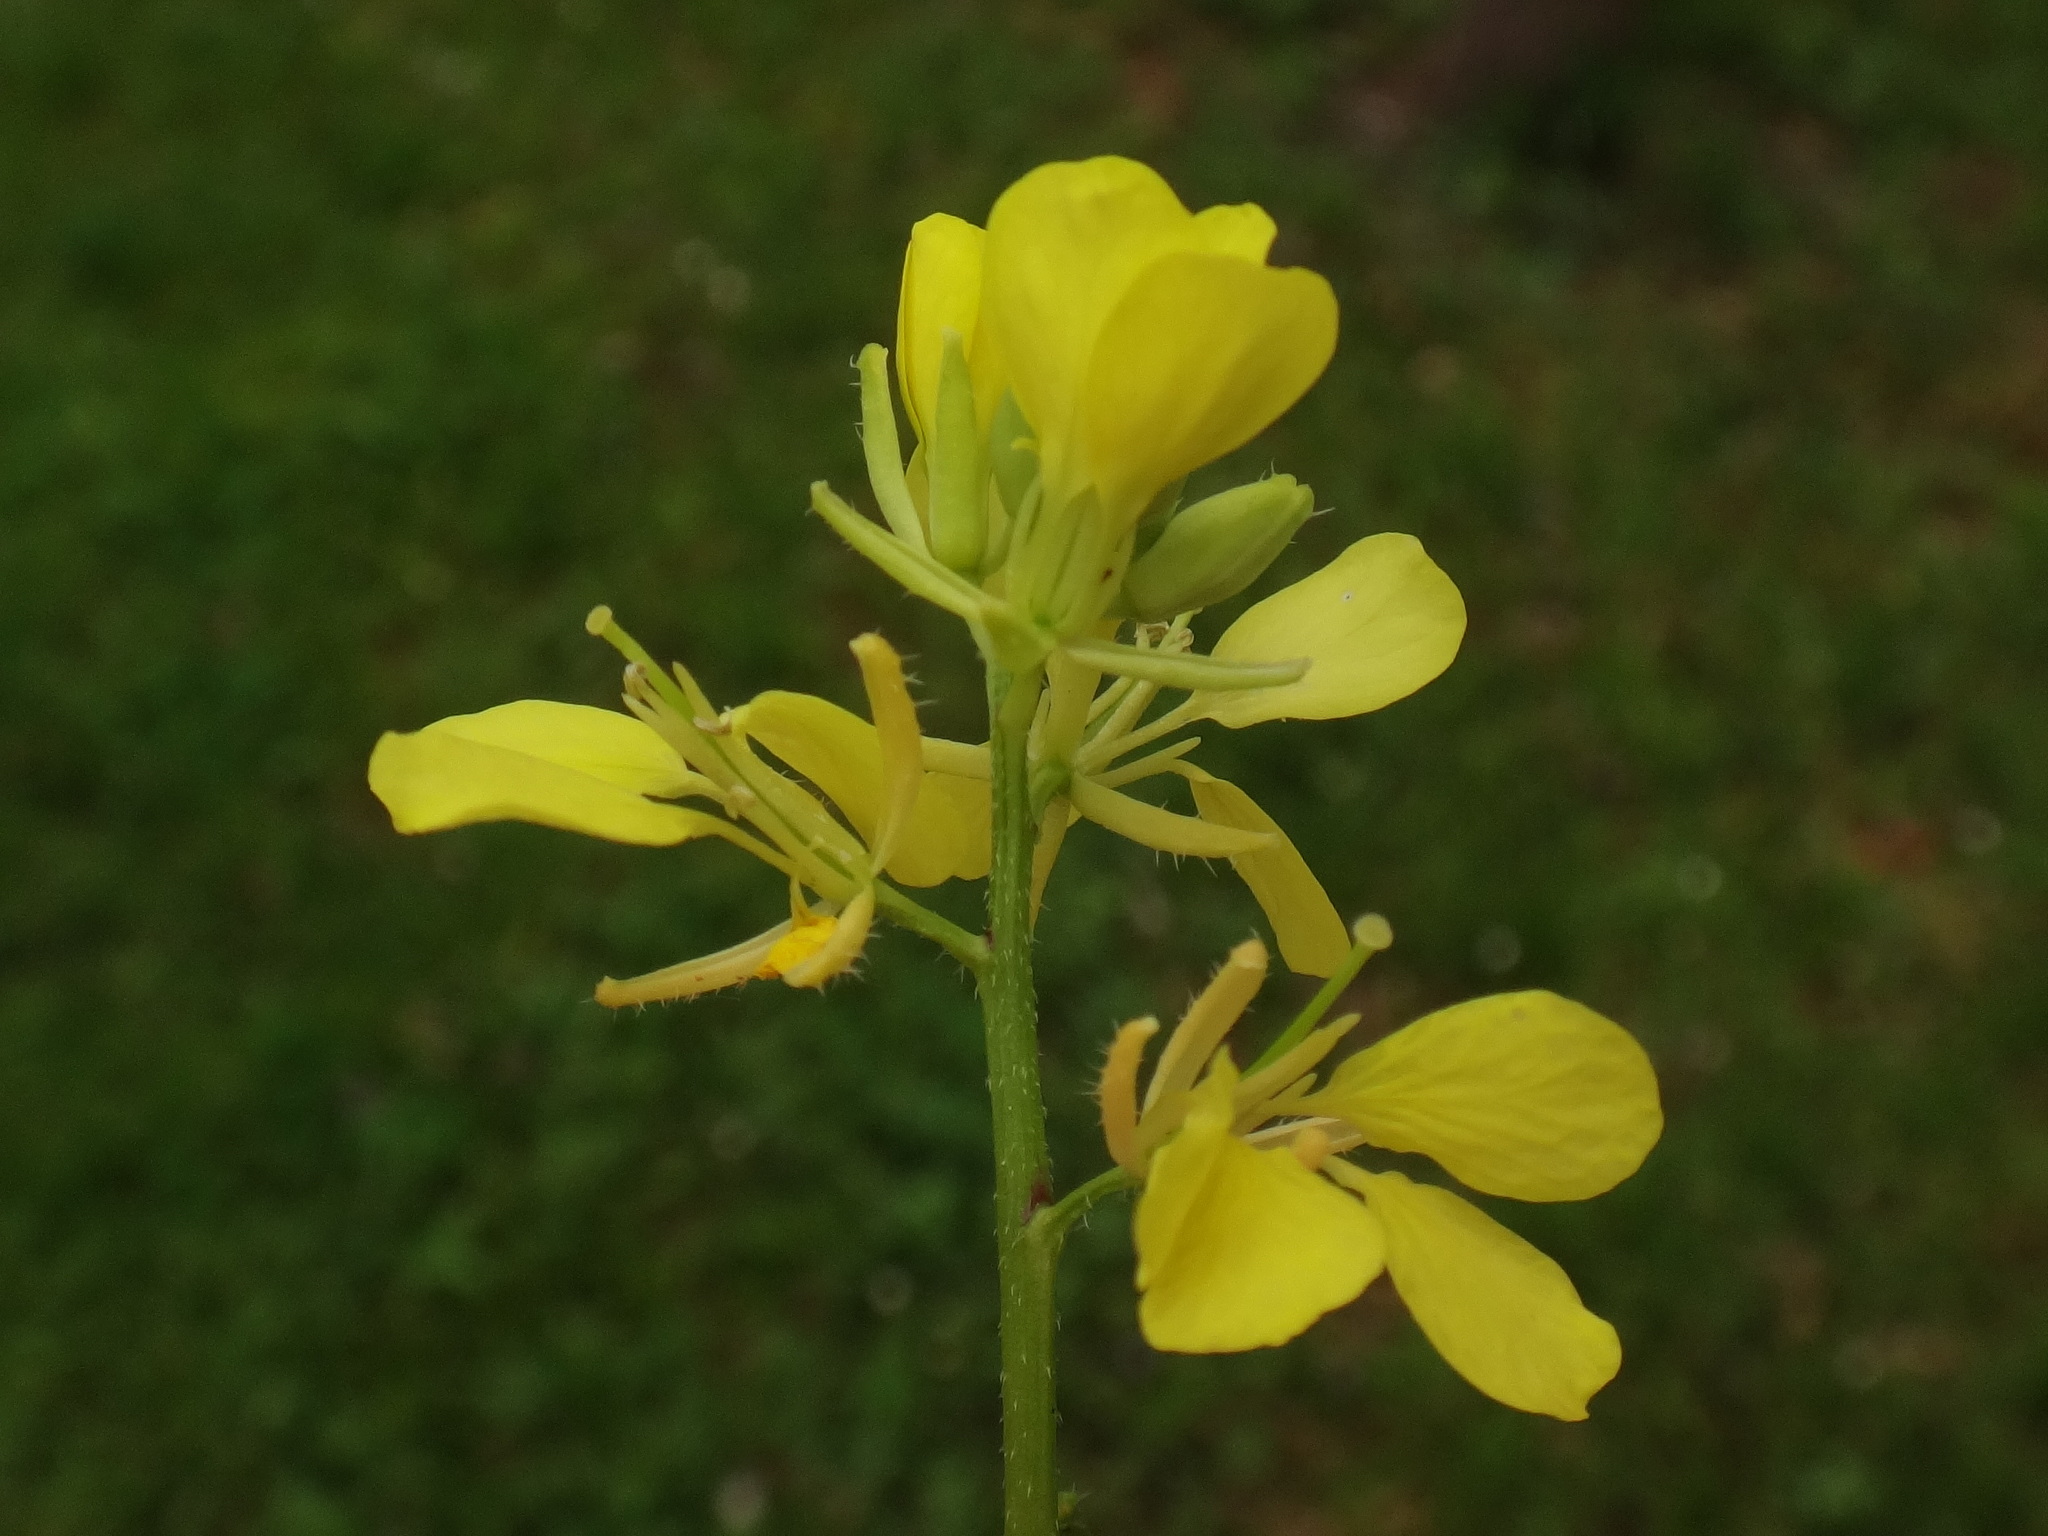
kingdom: Plantae
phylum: Tracheophyta
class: Magnoliopsida
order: Brassicales
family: Brassicaceae
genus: Sinapis
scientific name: Sinapis arvensis
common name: Charlock
